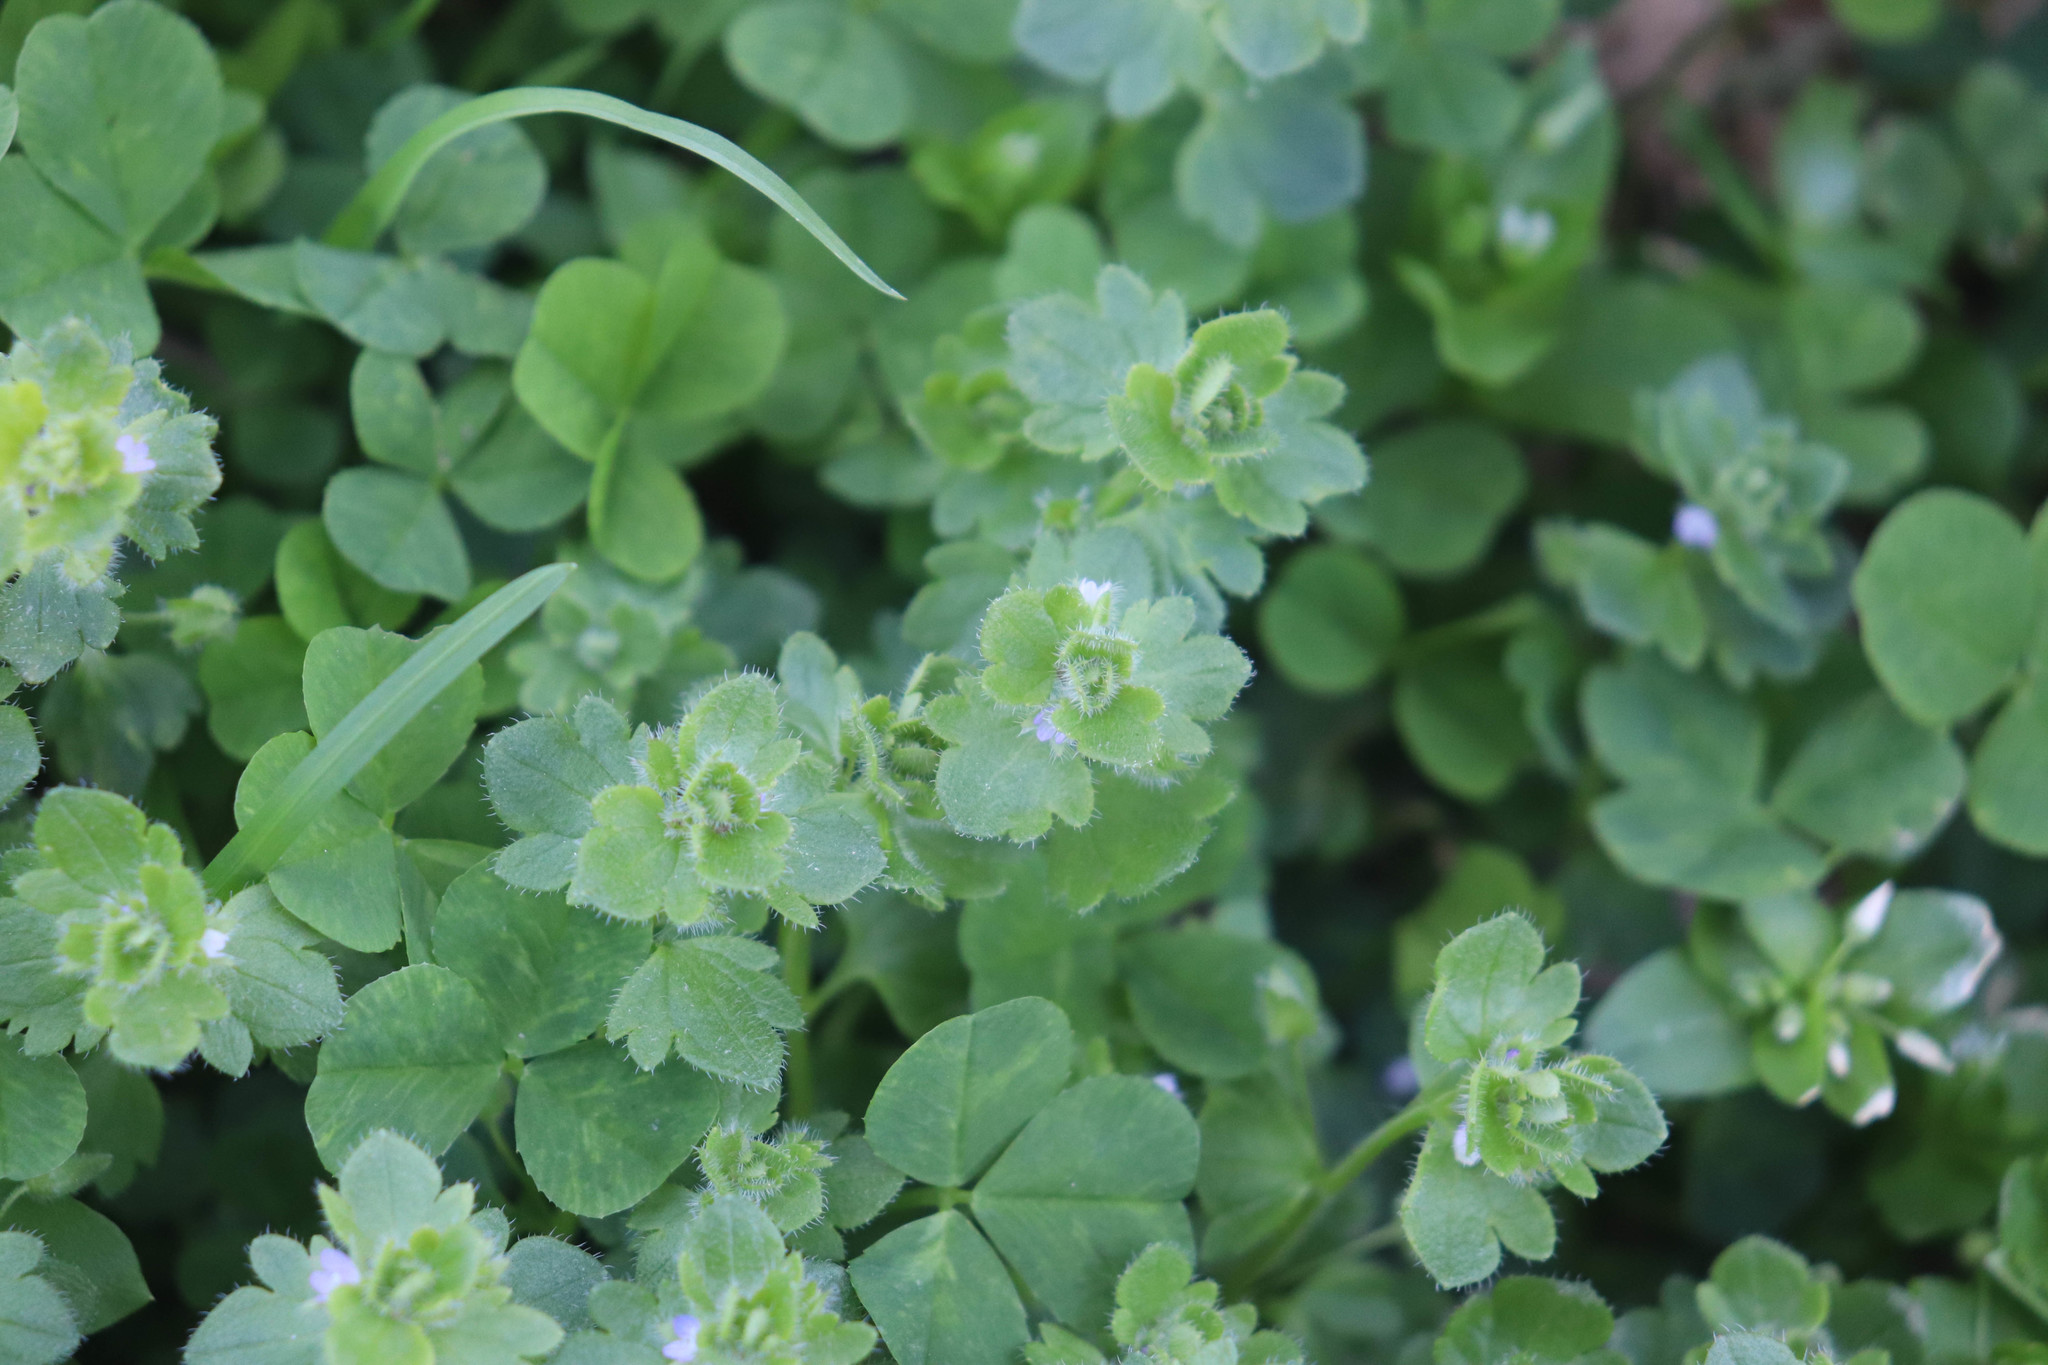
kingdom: Plantae
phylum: Tracheophyta
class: Magnoliopsida
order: Lamiales
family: Plantaginaceae
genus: Veronica
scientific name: Veronica sublobata
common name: False ivy-leaved speedwell
